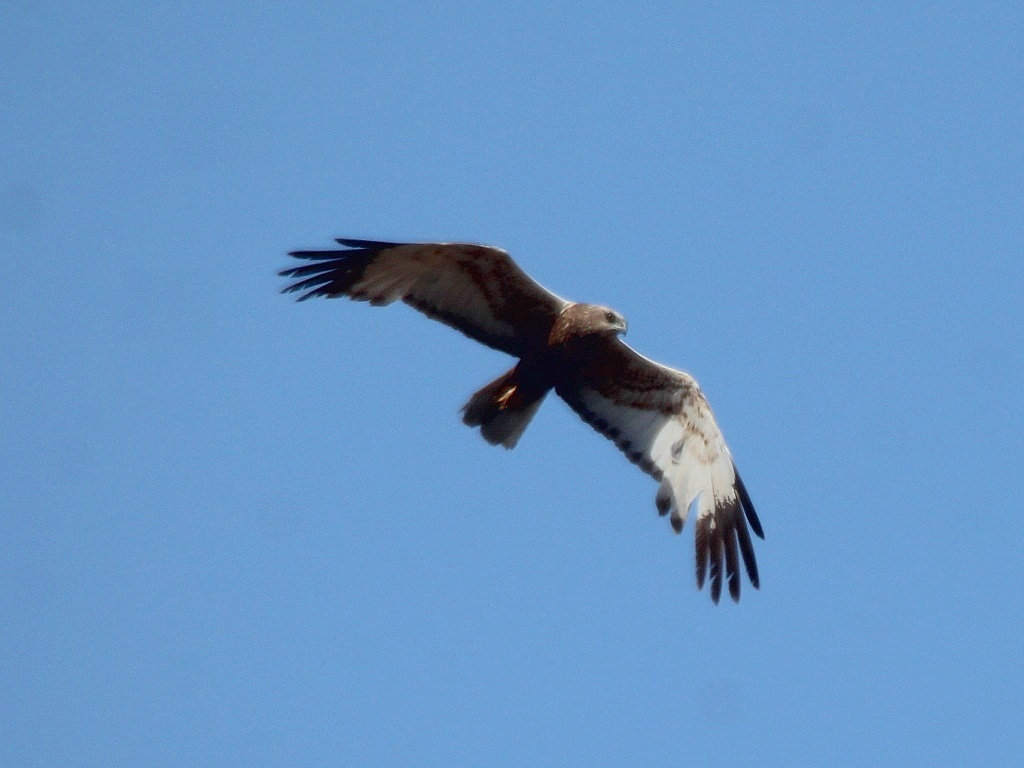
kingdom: Animalia
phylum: Chordata
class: Aves
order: Accipitriformes
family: Accipitridae
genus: Circus
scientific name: Circus aeruginosus
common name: Western marsh harrier
